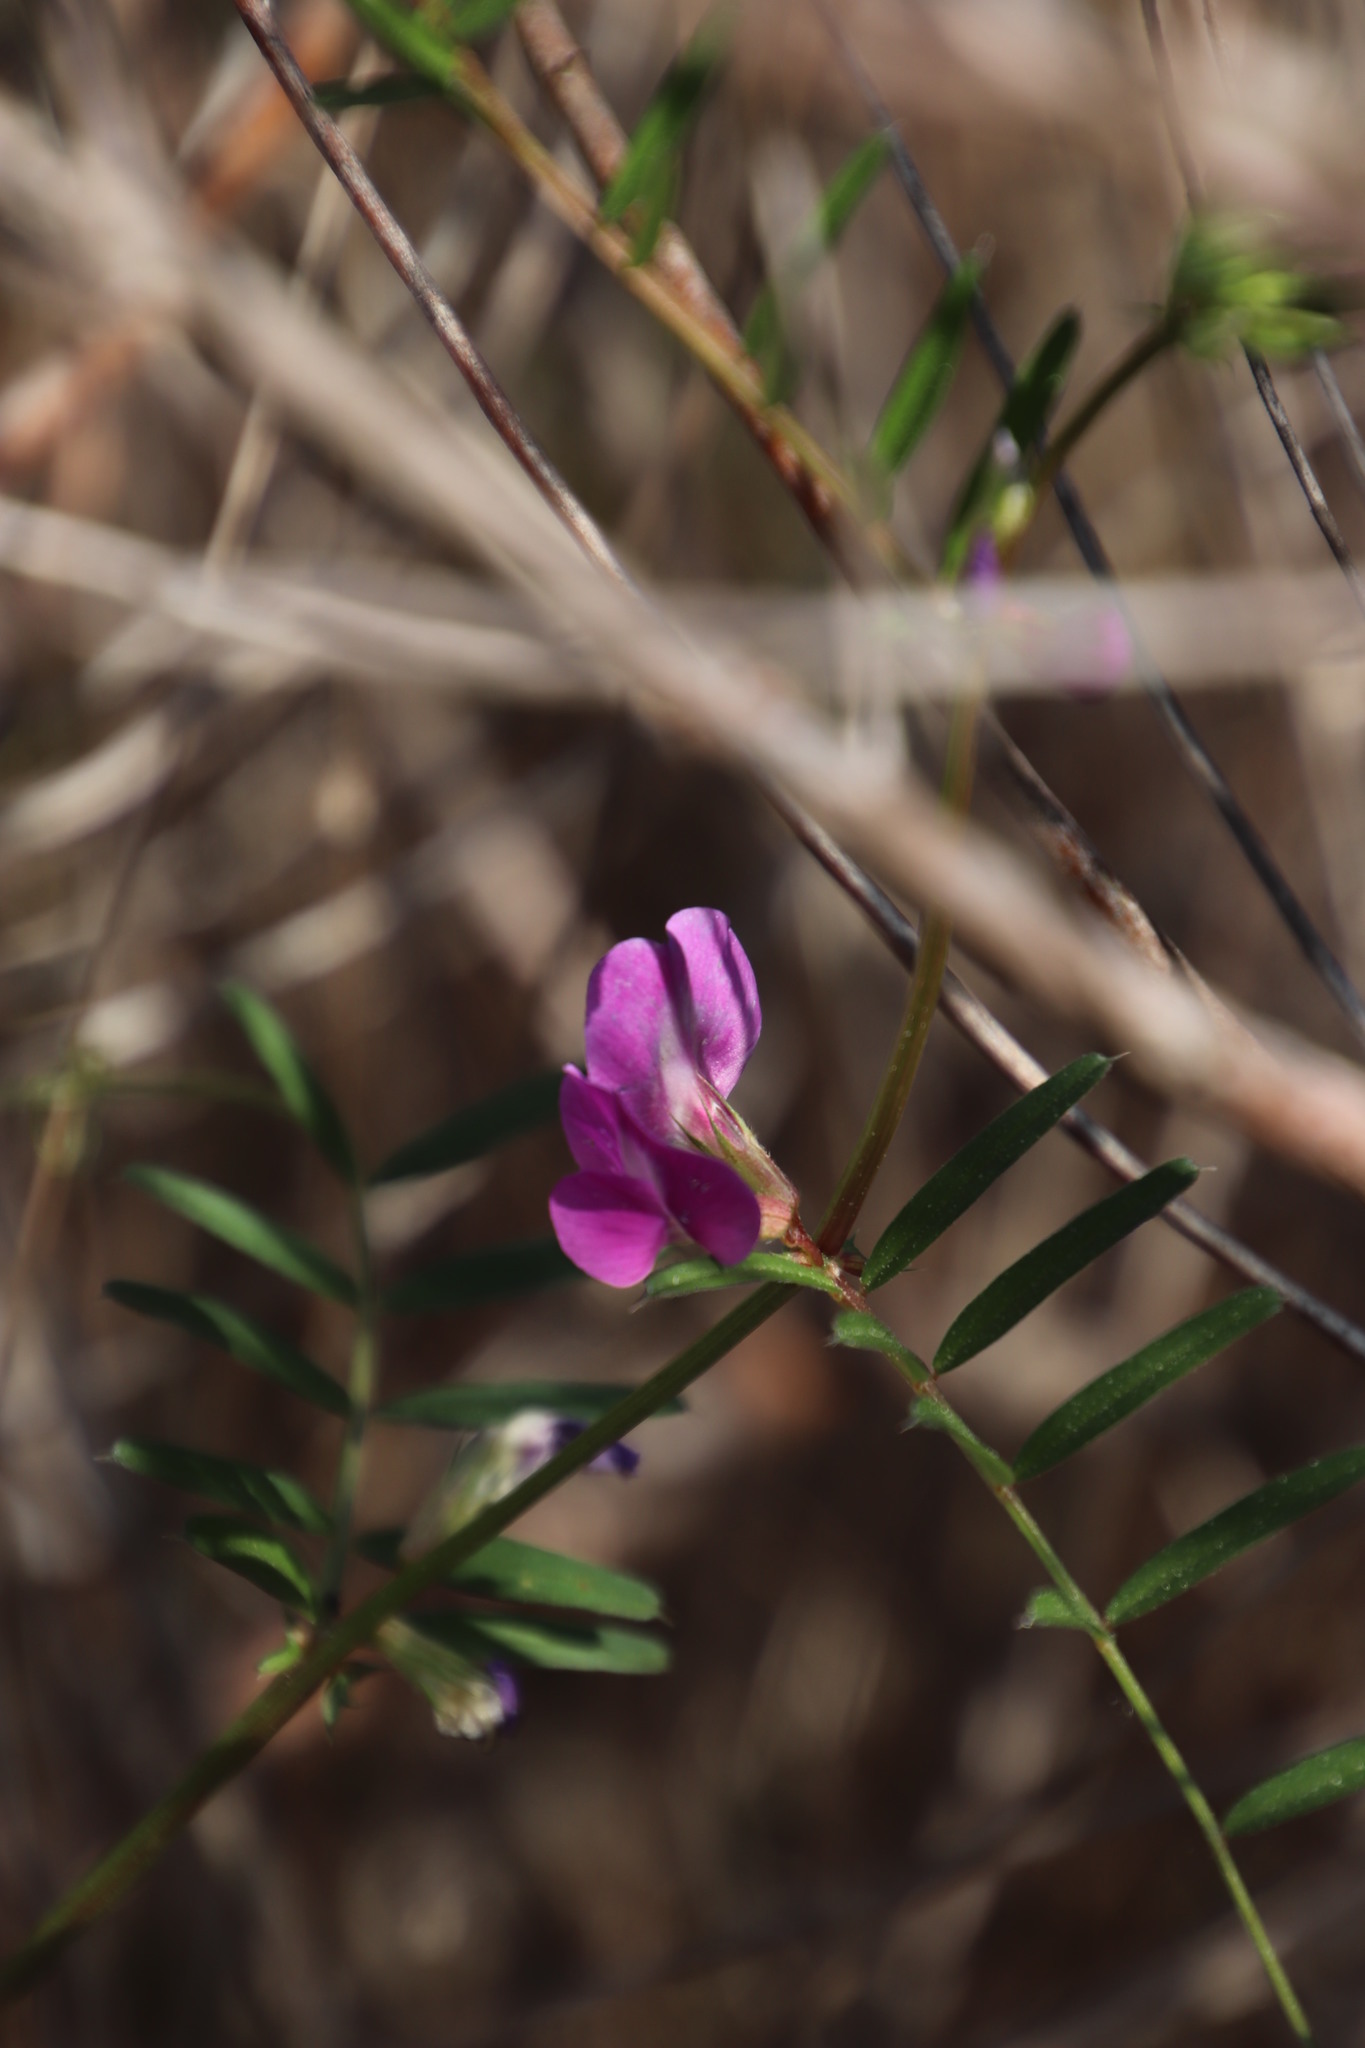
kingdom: Plantae
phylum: Tracheophyta
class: Magnoliopsida
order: Fabales
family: Fabaceae
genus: Vicia
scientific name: Vicia sativa
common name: Garden vetch
